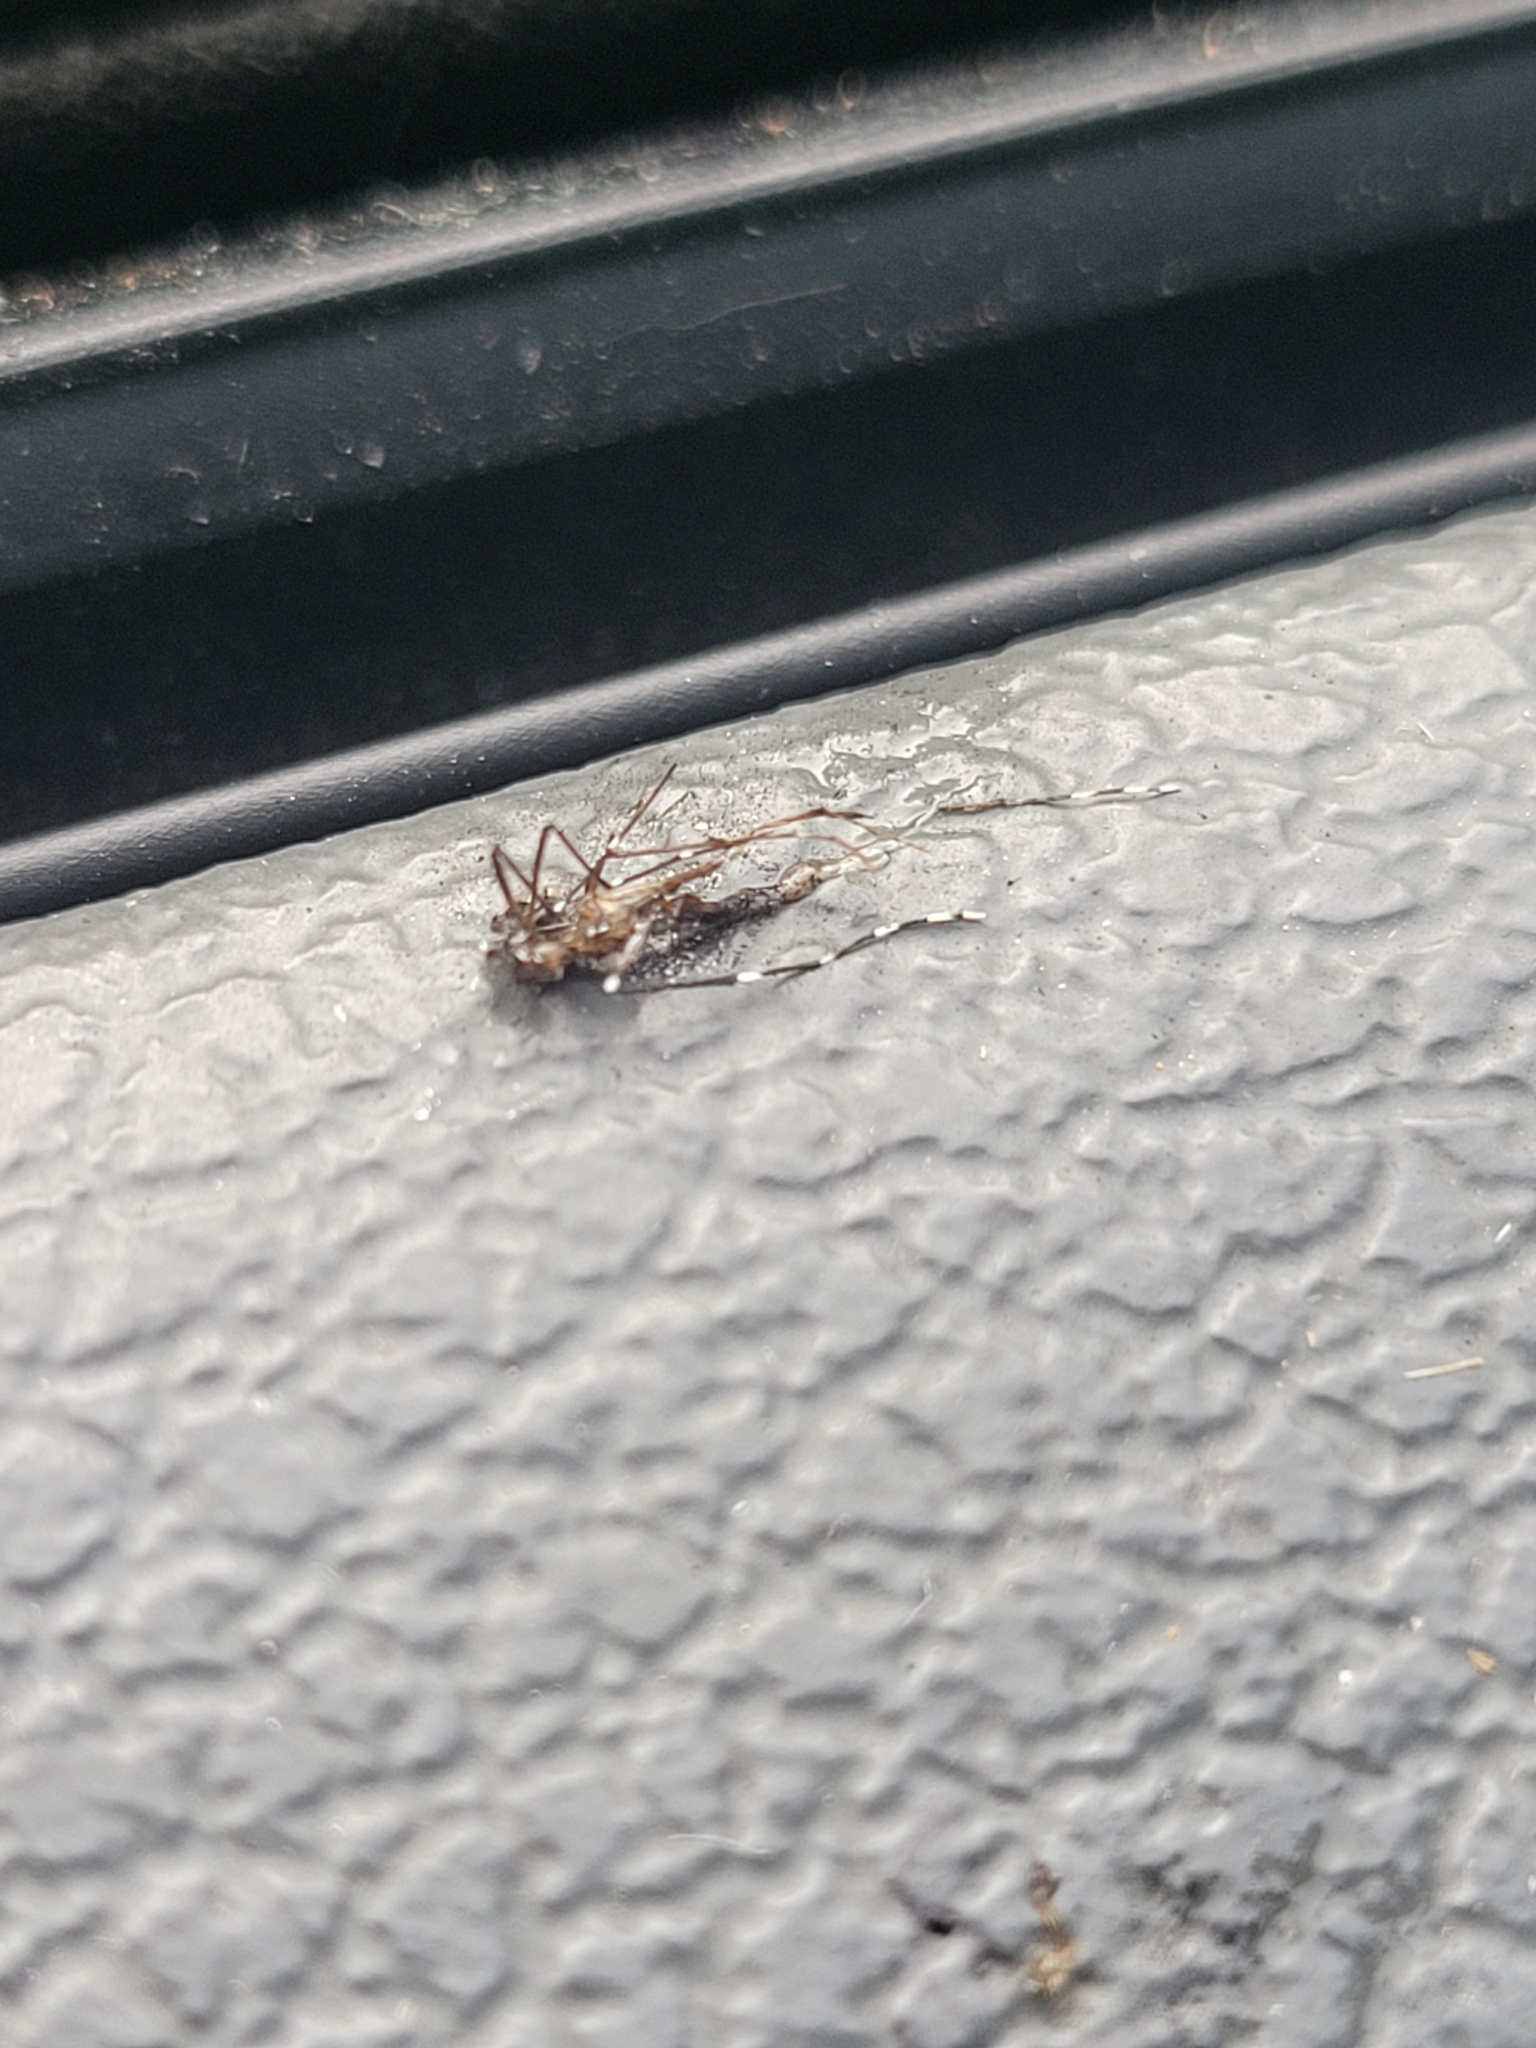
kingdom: Animalia
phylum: Arthropoda
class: Insecta
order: Diptera
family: Culicidae
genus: Aedes
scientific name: Aedes albopictus
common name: Tiger mosquito
